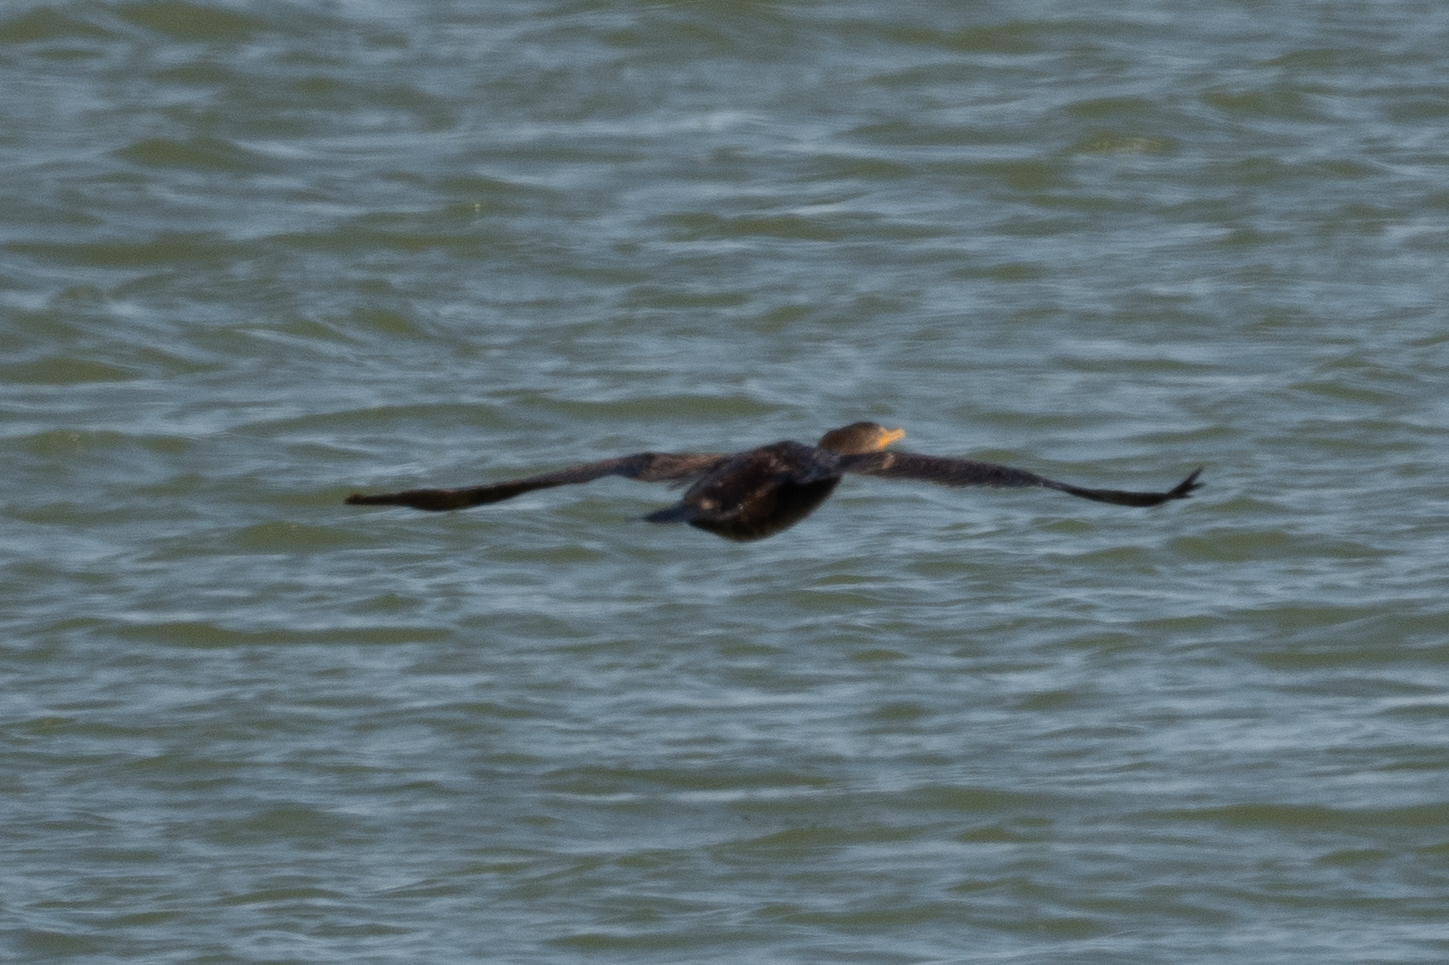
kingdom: Animalia
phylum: Chordata
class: Aves
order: Suliformes
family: Phalacrocoracidae
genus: Phalacrocorax
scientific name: Phalacrocorax auritus
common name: Double-crested cormorant
